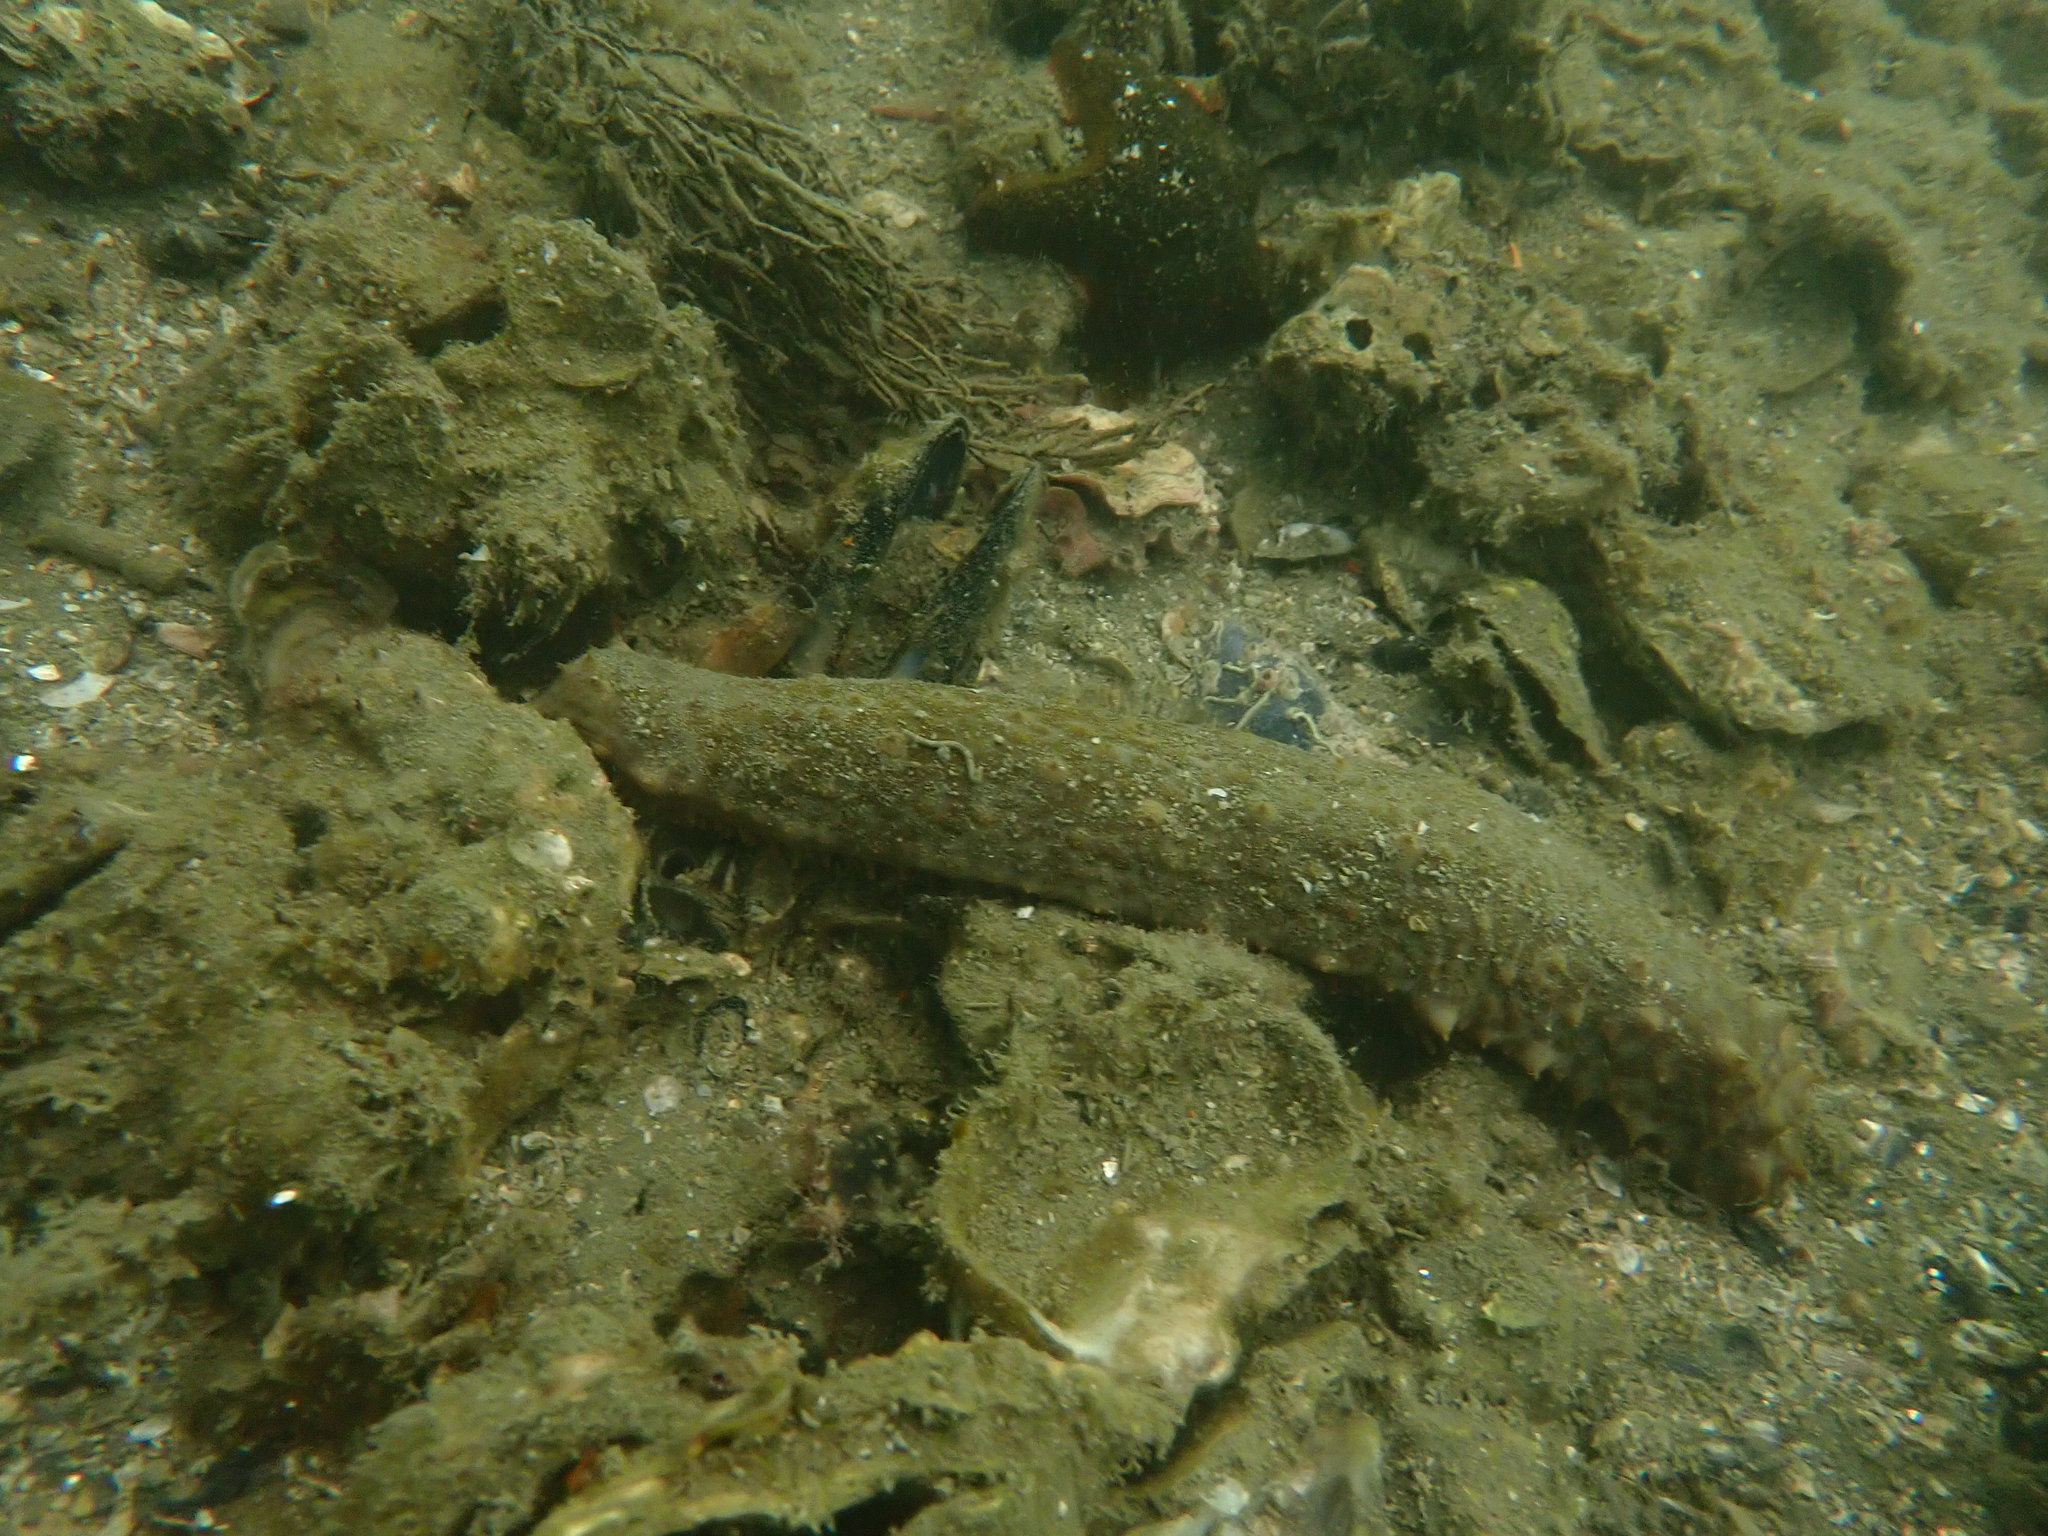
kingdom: Animalia
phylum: Mollusca
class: Bivalvia
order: Ostreida
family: Ostreidae
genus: Magallana
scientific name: Magallana gigas
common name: Pacific oyster
